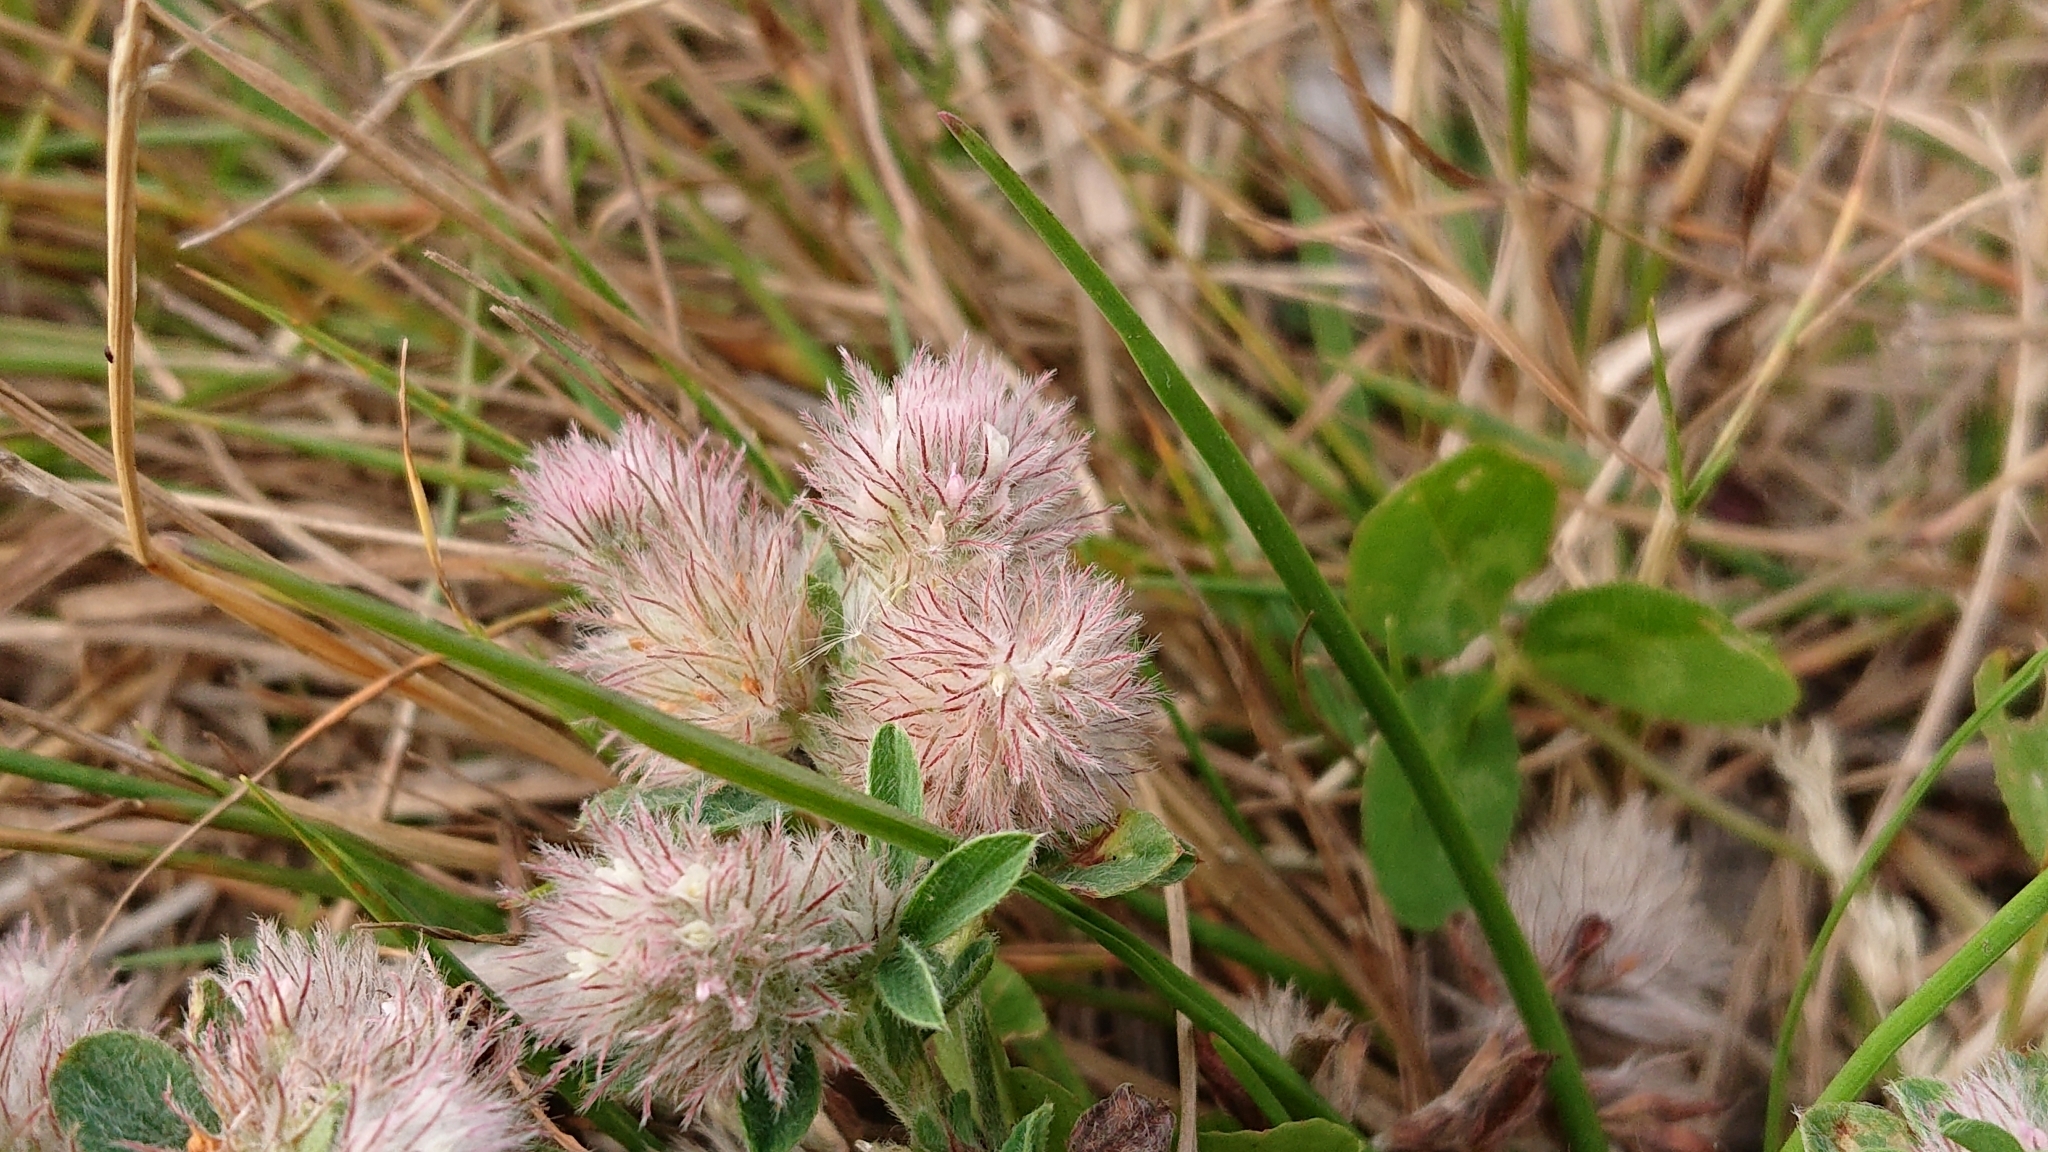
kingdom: Plantae
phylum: Tracheophyta
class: Magnoliopsida
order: Fabales
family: Fabaceae
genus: Trifolium
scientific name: Trifolium arvense
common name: Hare's-foot clover
